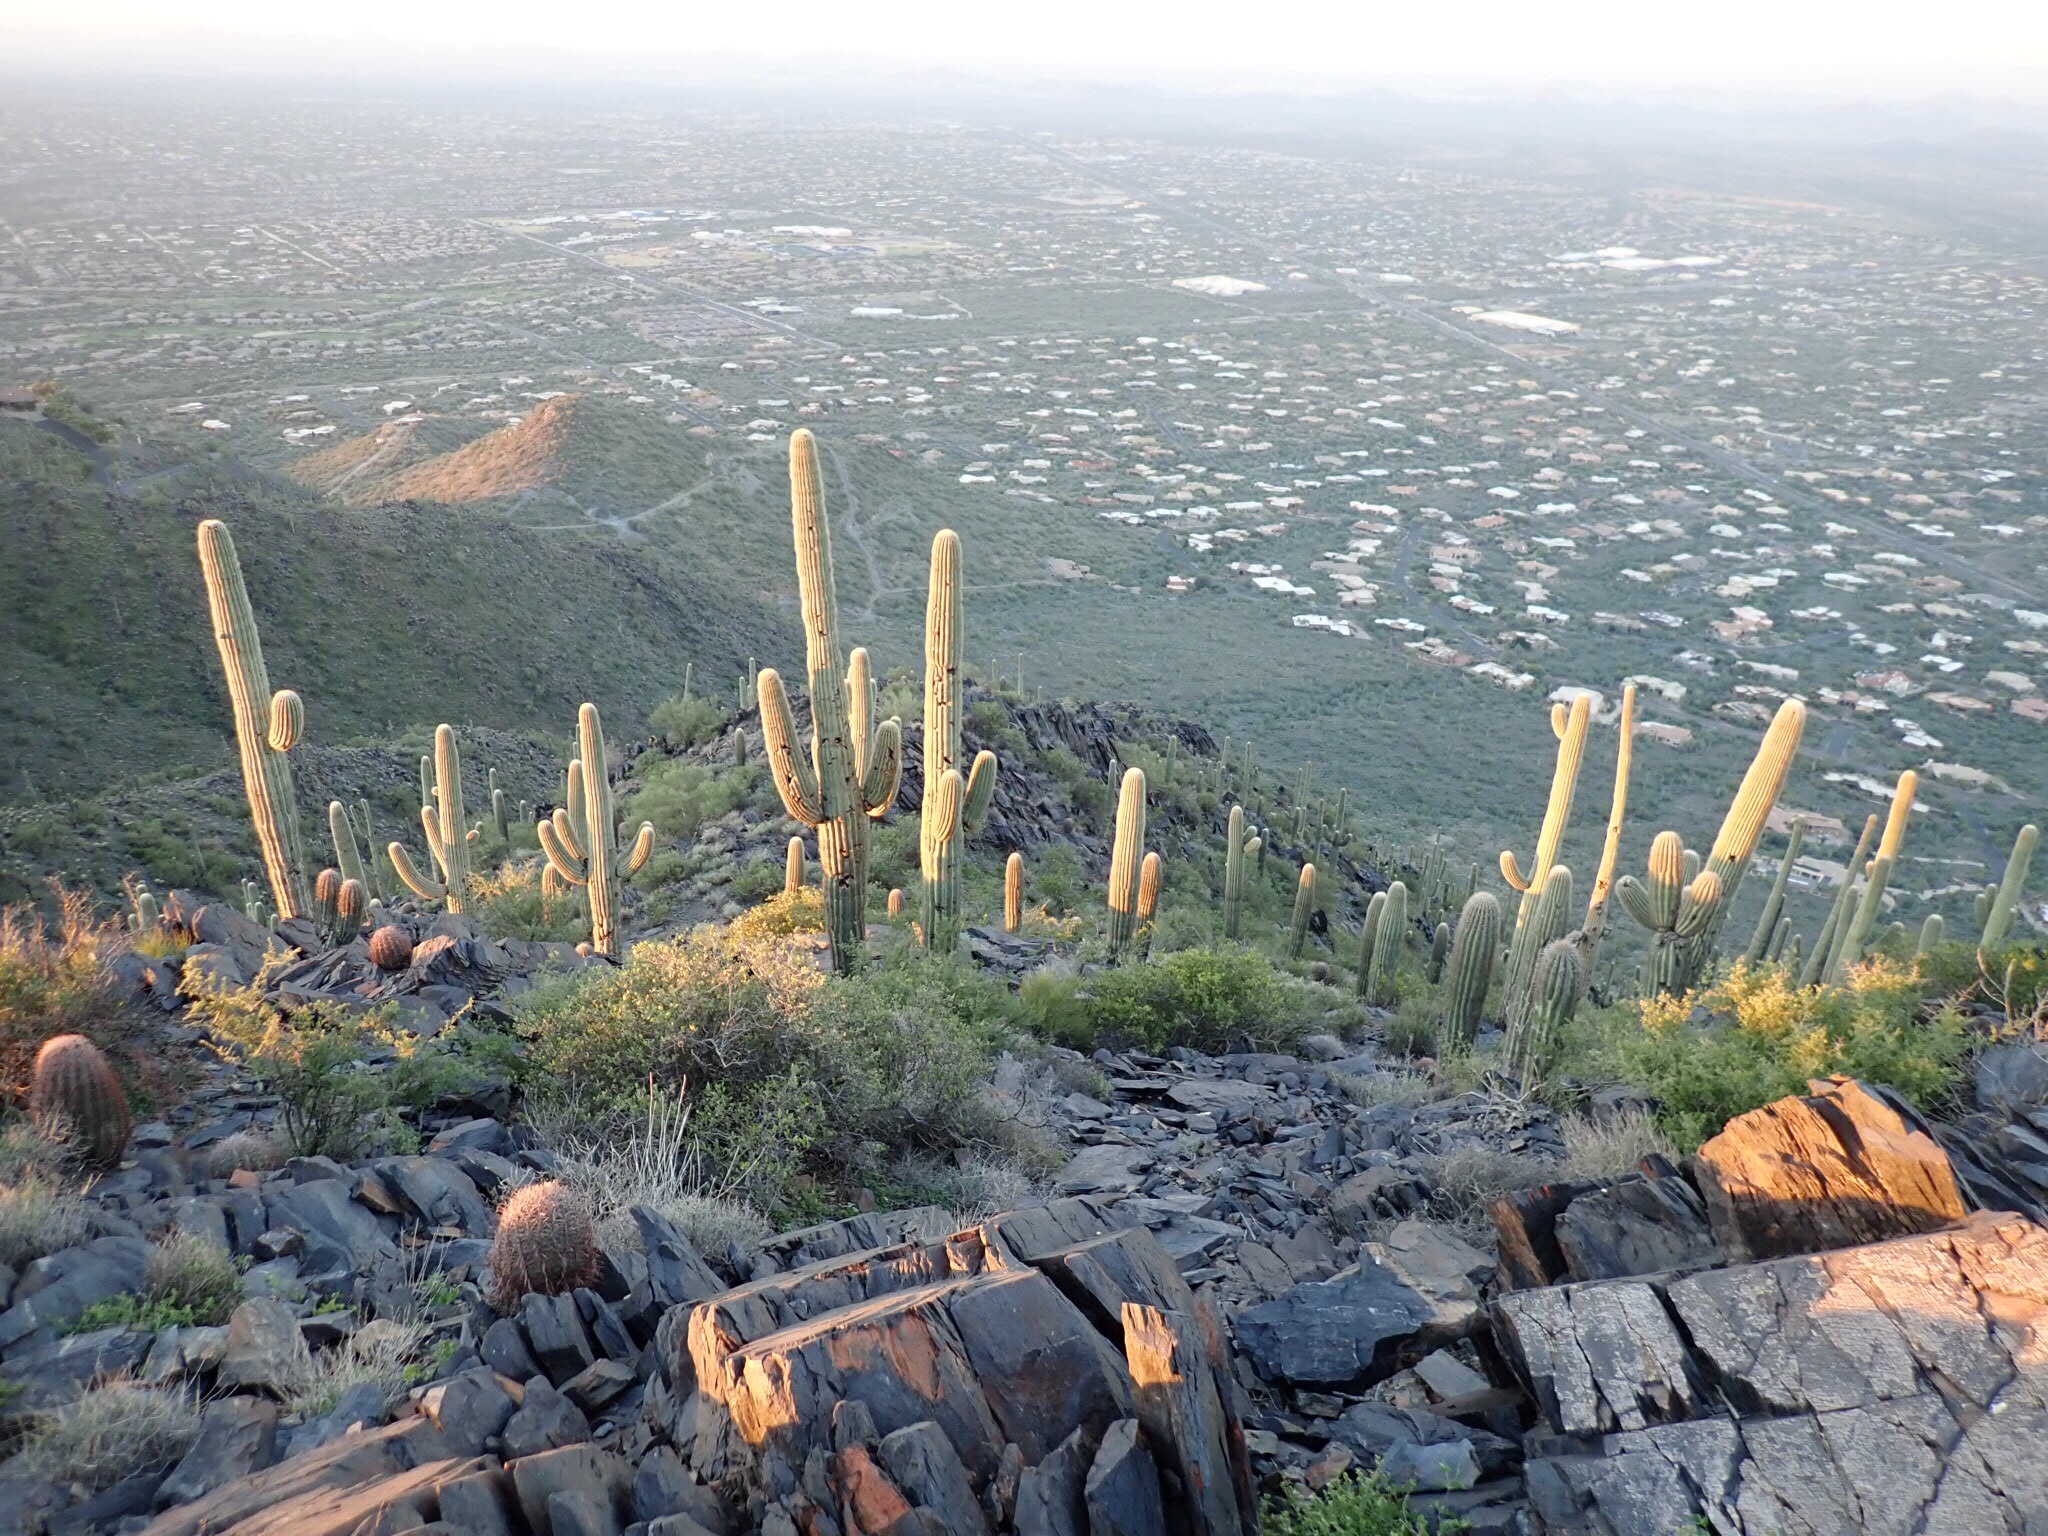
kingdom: Plantae
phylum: Tracheophyta
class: Magnoliopsida
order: Caryophyllales
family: Cactaceae
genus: Carnegiea
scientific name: Carnegiea gigantea
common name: Saguaro
